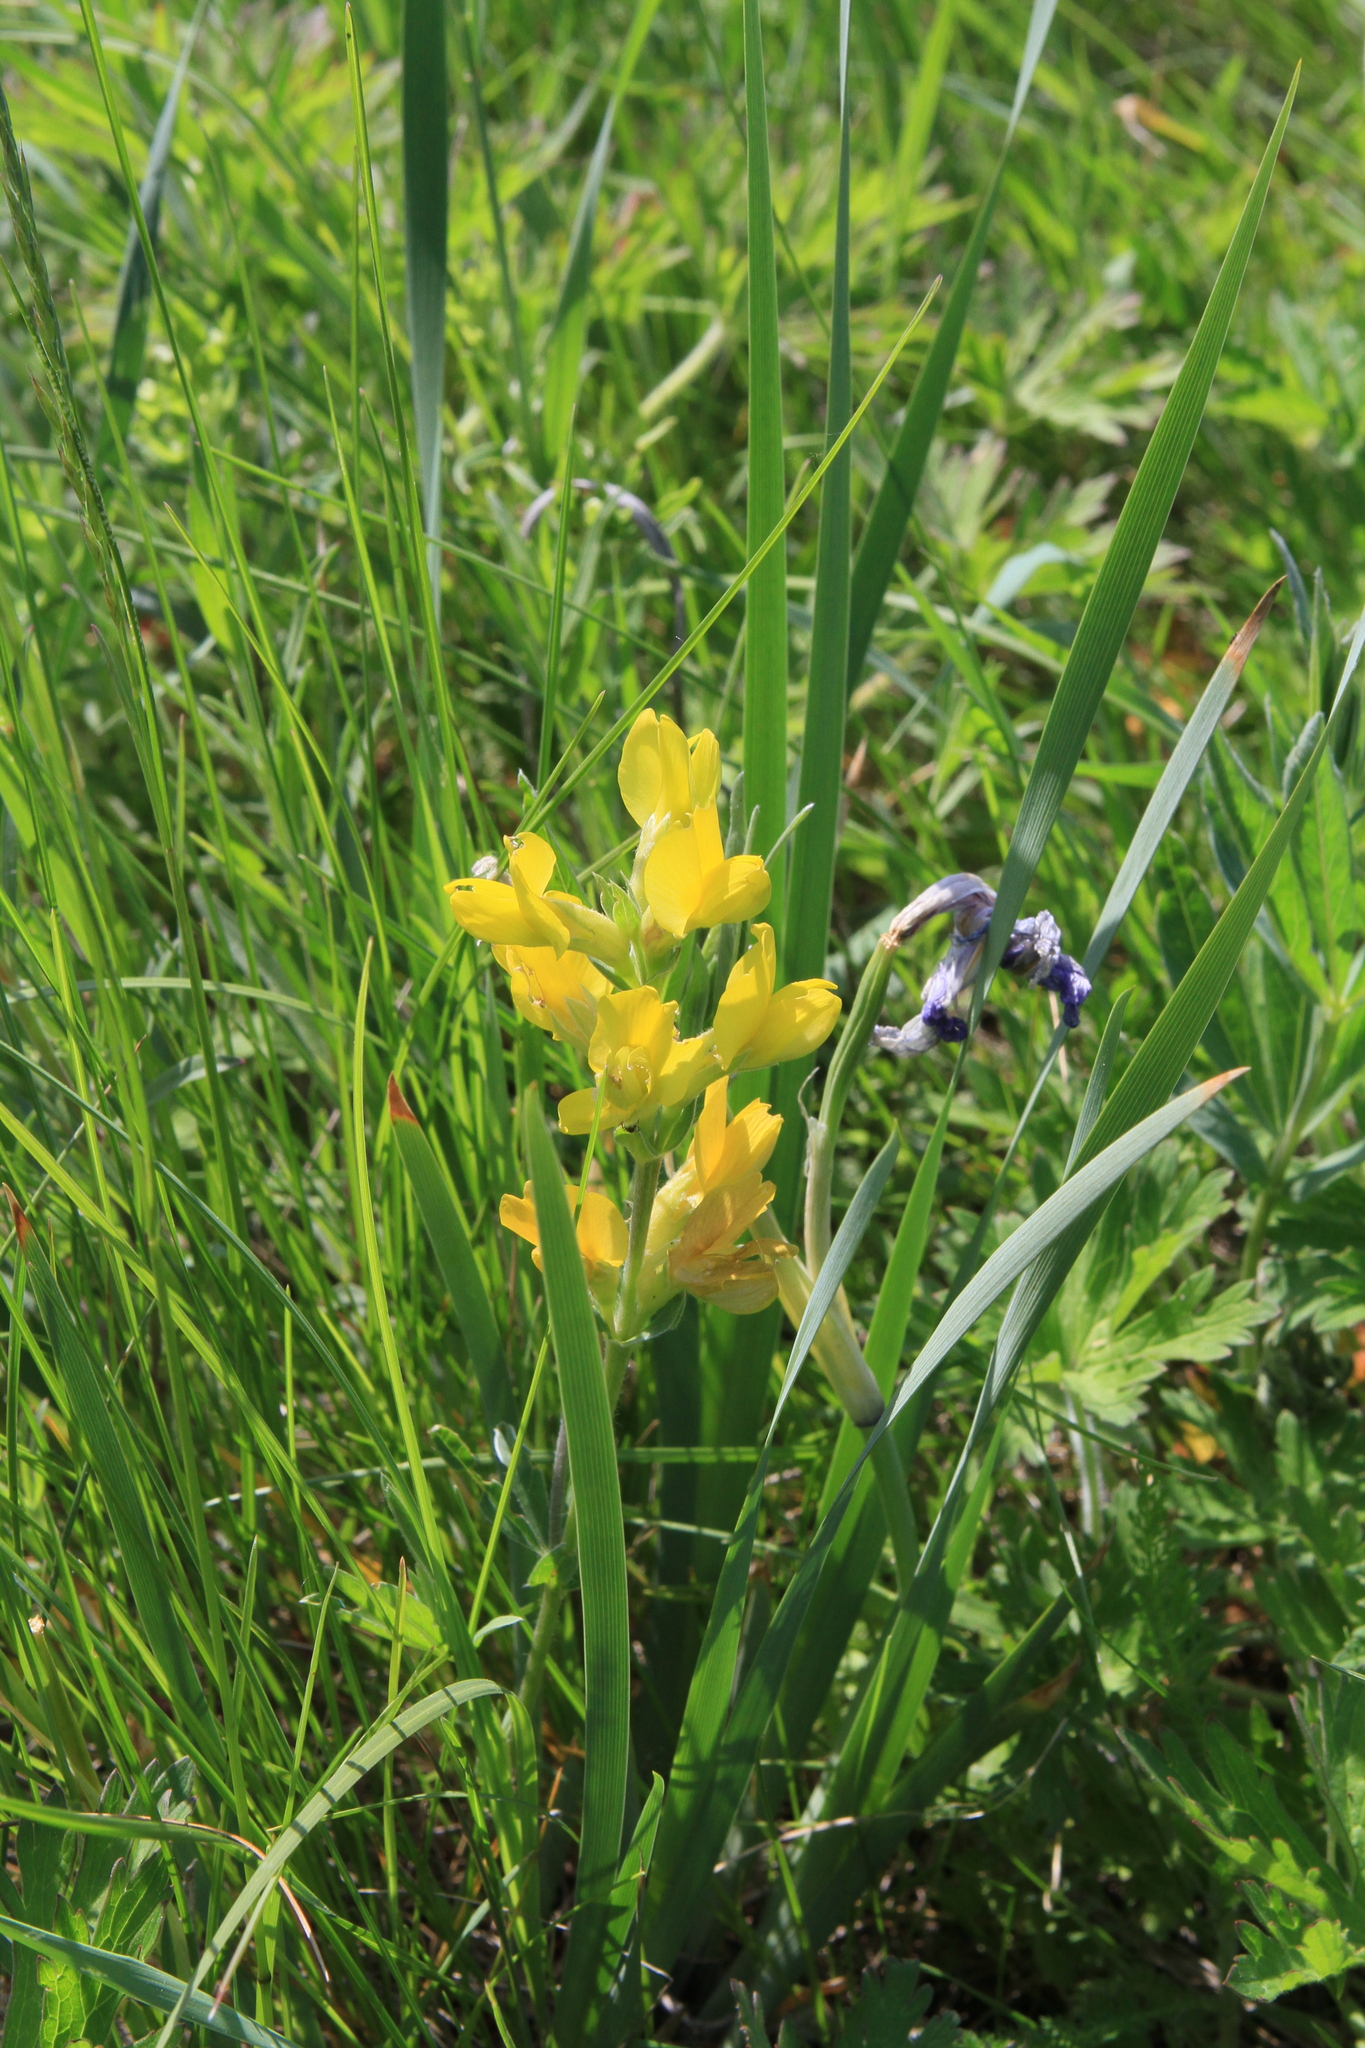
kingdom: Plantae
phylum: Tracheophyta
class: Magnoliopsida
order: Fabales
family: Fabaceae
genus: Thermopsis
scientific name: Thermopsis lanceolata
